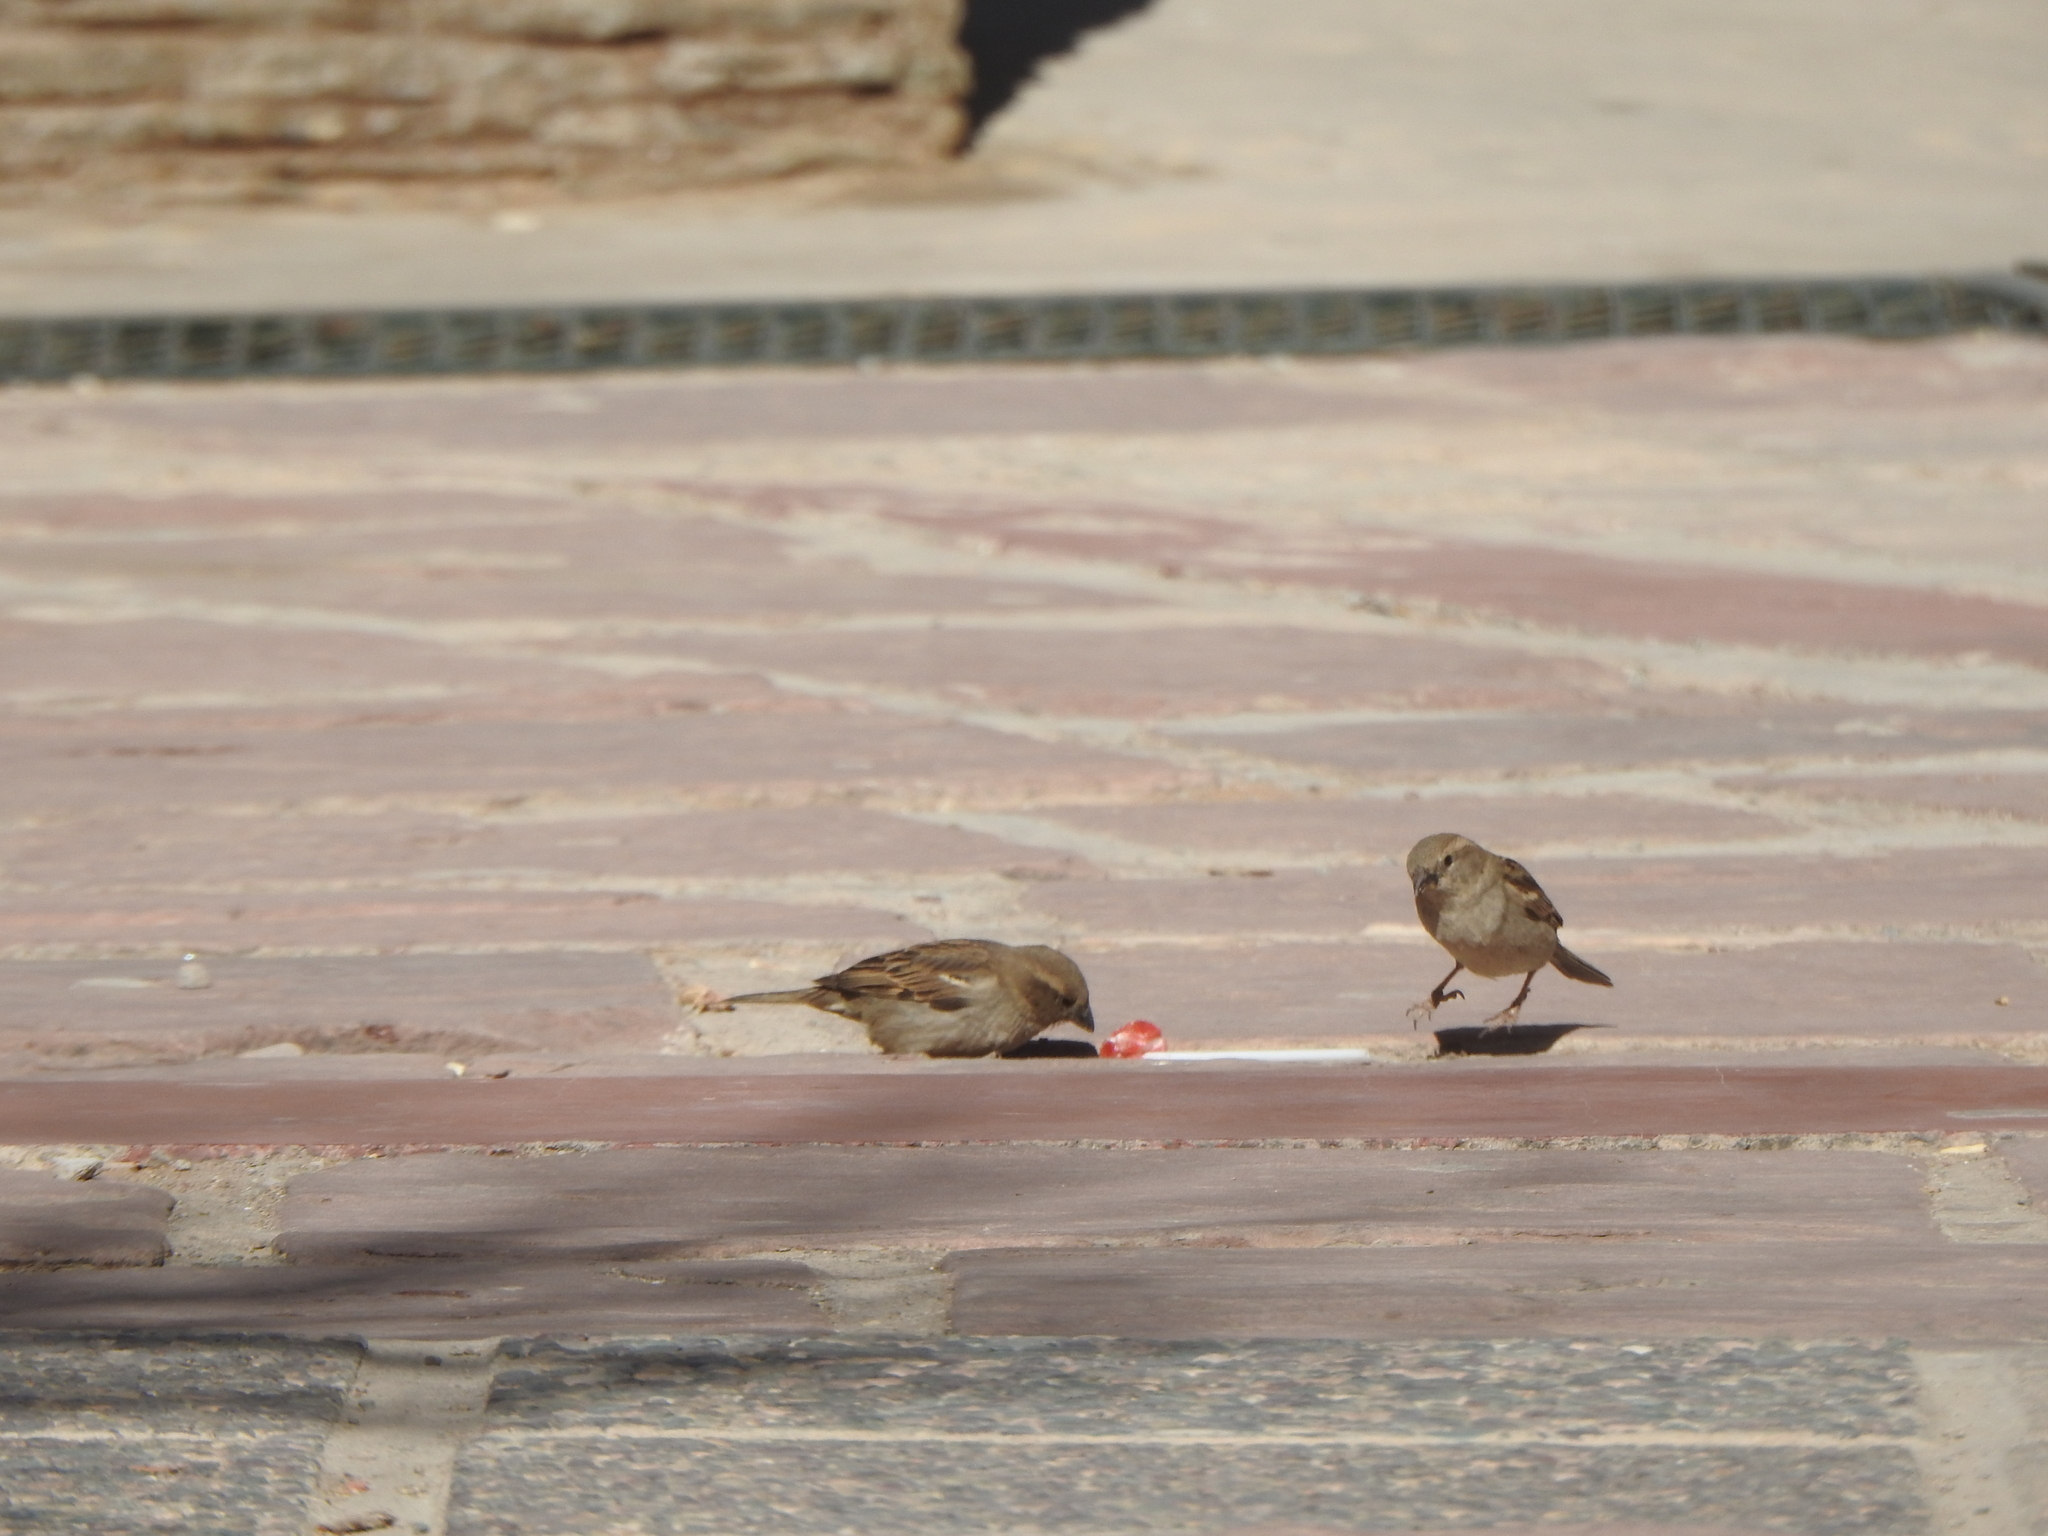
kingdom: Animalia
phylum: Chordata
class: Aves
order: Passeriformes
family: Passeridae
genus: Passer
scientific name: Passer domesticus
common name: House sparrow
